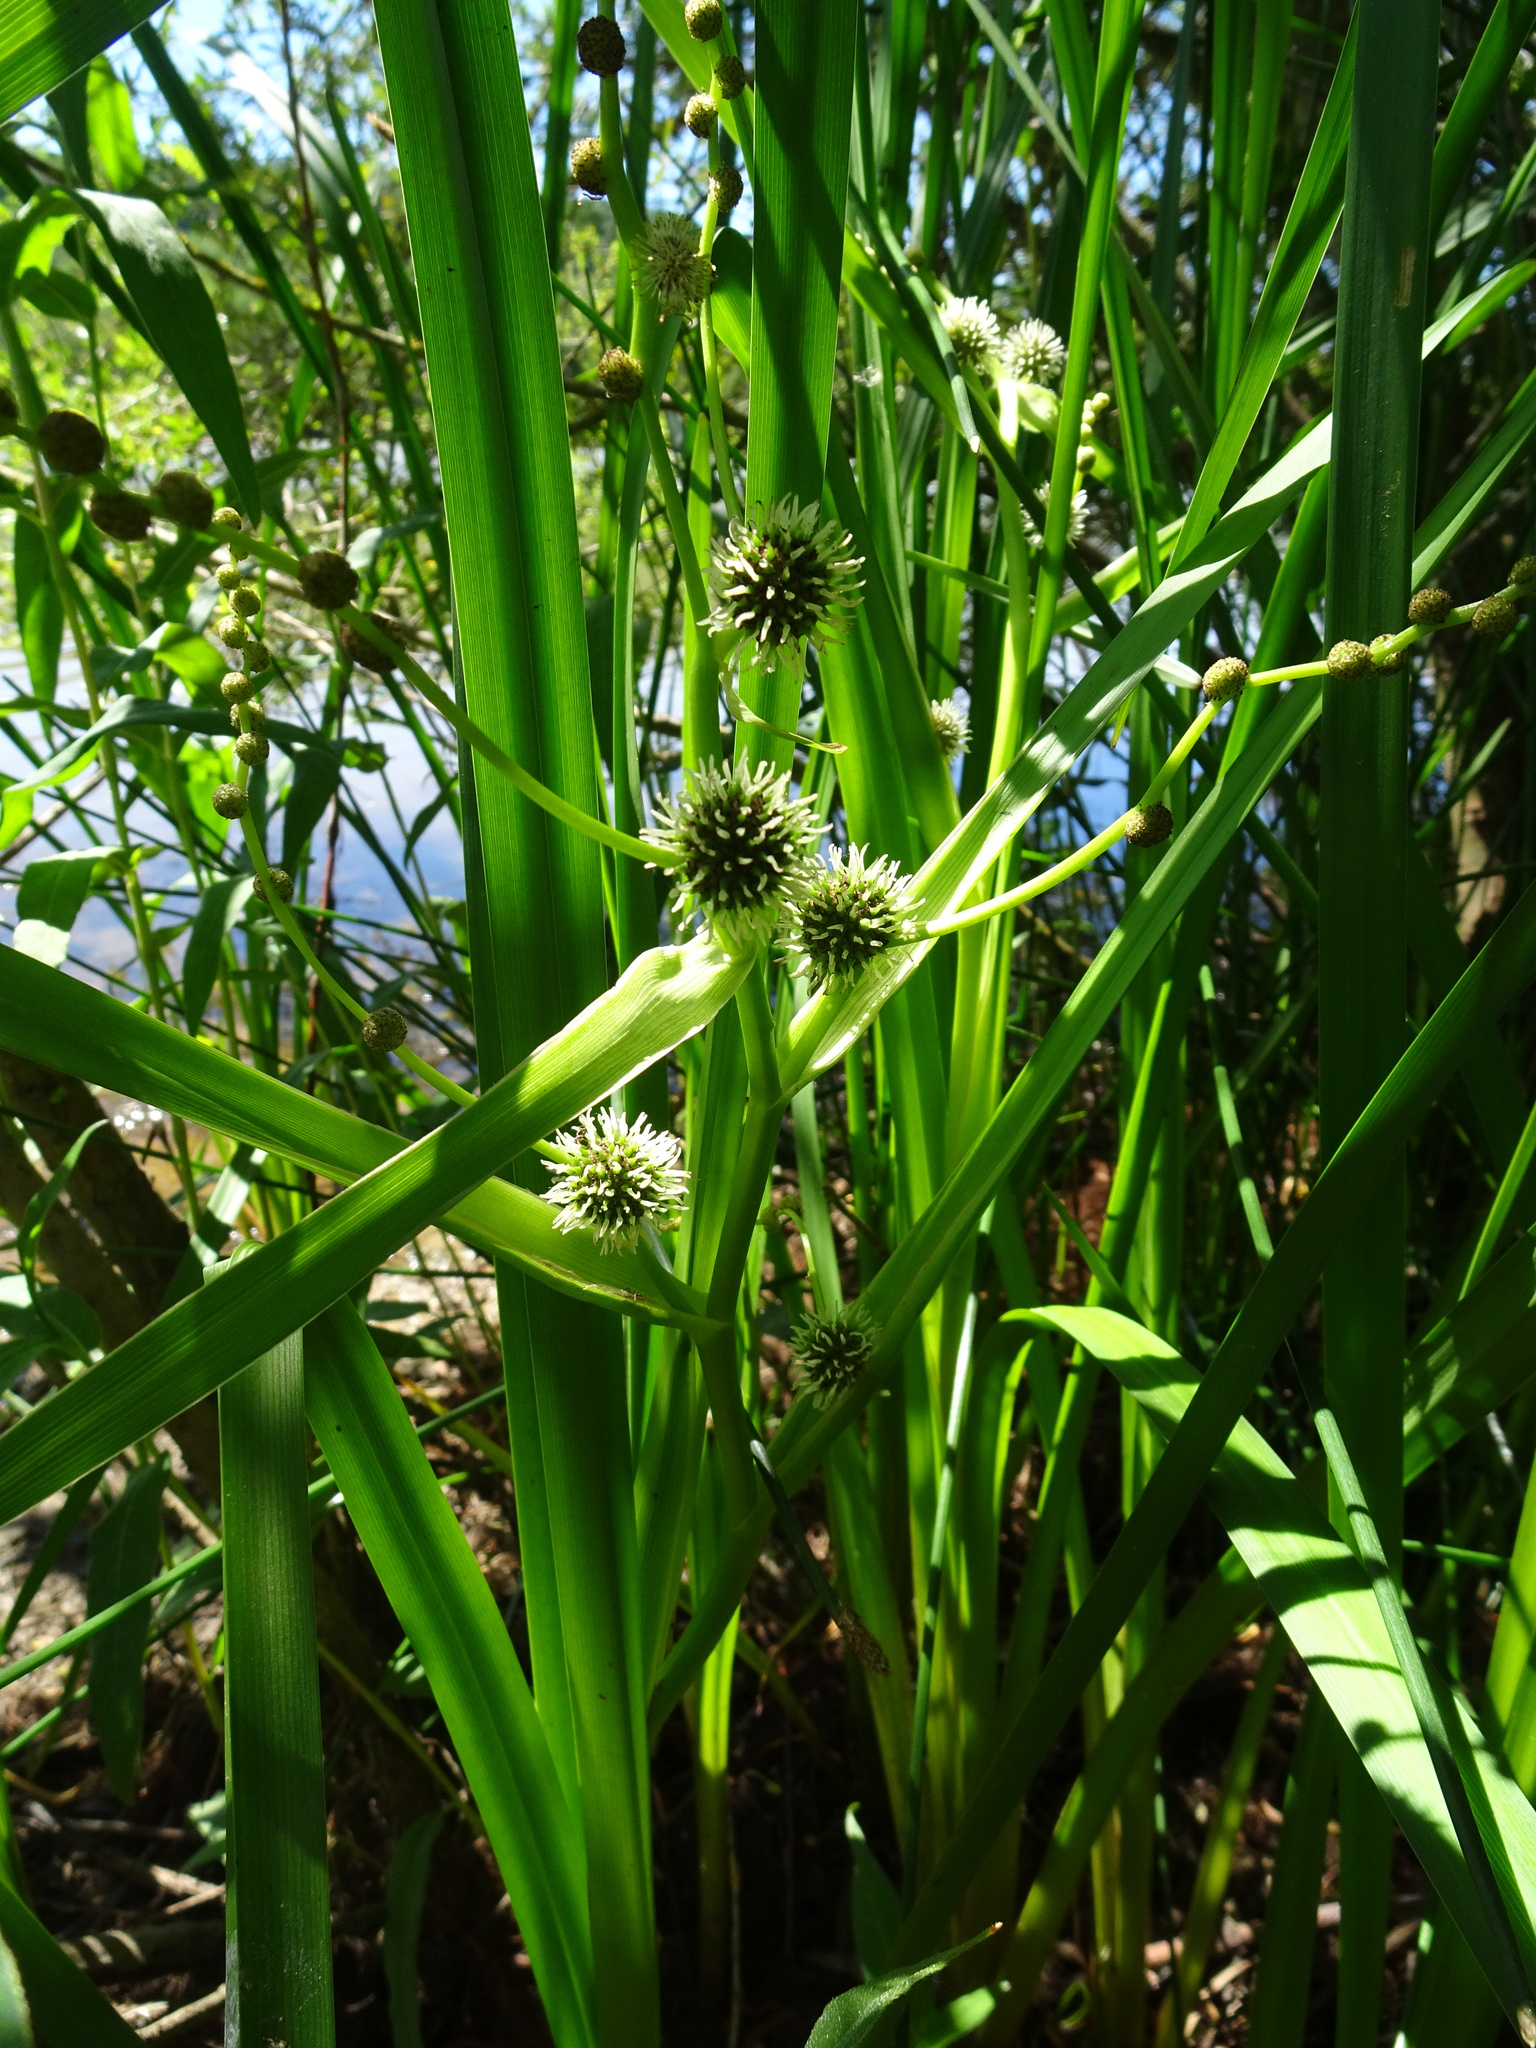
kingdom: Plantae
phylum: Tracheophyta
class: Liliopsida
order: Poales
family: Typhaceae
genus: Sparganium
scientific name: Sparganium erectum
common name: Branched bur-reed
